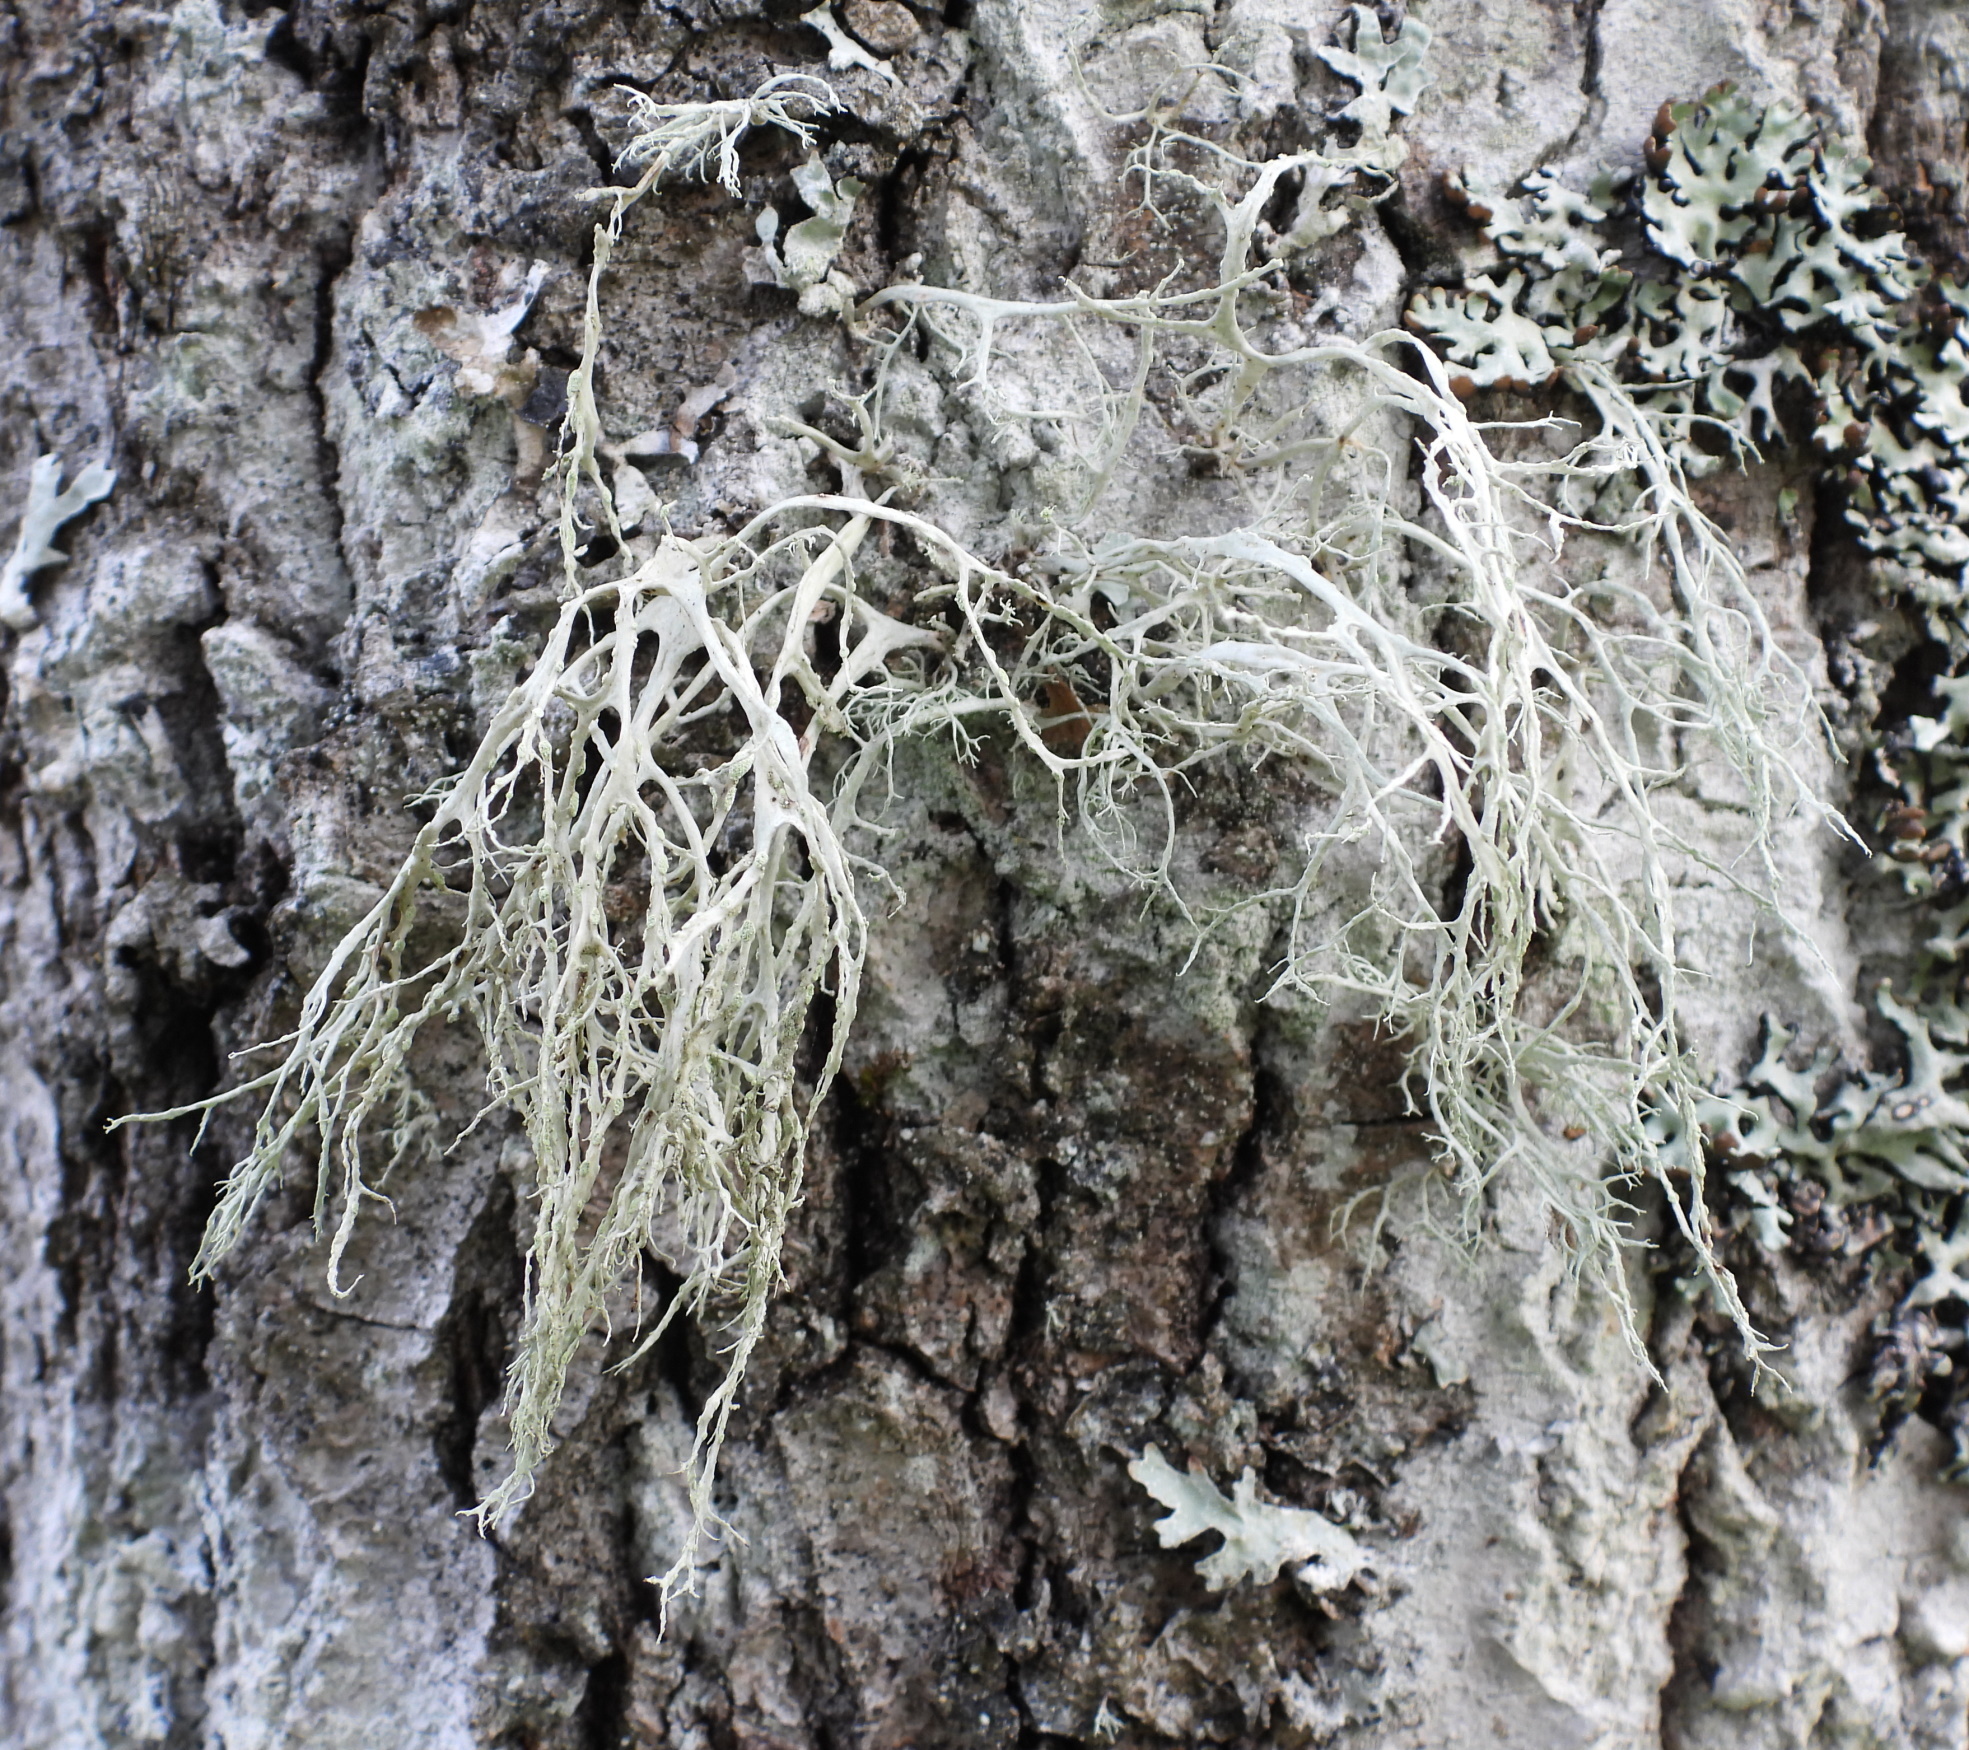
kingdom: Fungi
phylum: Ascomycota
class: Lecanoromycetes
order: Lecanorales
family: Ramalinaceae
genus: Ramalina
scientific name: Ramalina farinacea
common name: Farinose cartilage lichen
